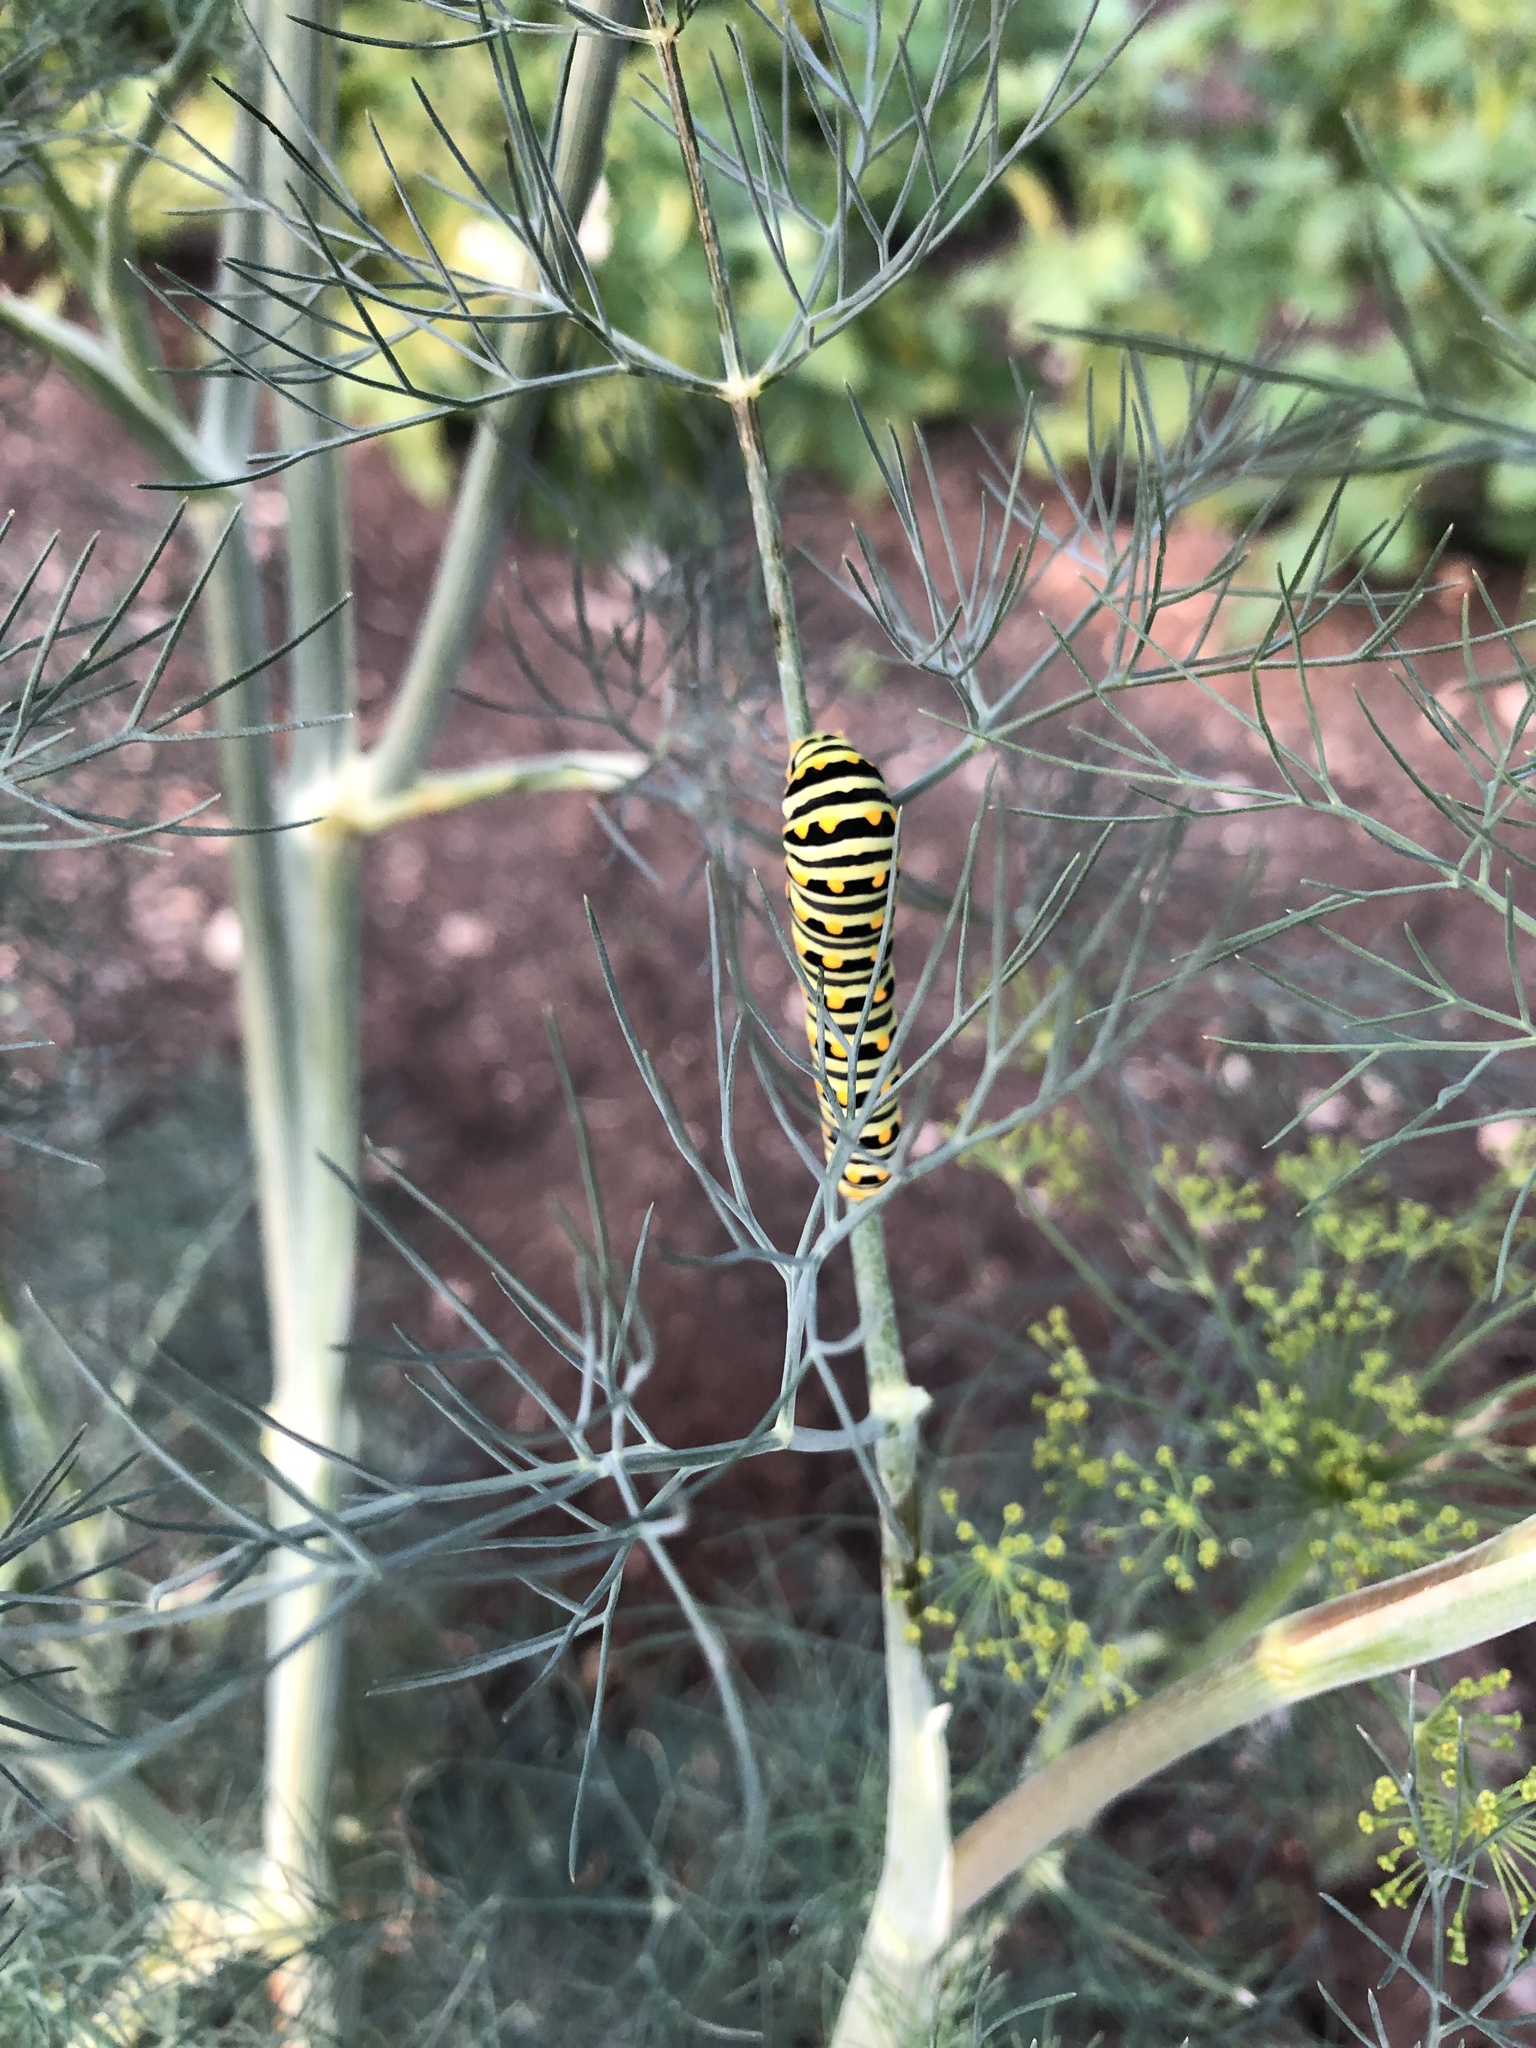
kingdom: Animalia
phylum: Arthropoda
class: Insecta
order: Lepidoptera
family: Papilionidae
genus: Papilio
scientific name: Papilio polyxenes
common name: Black swallowtail
